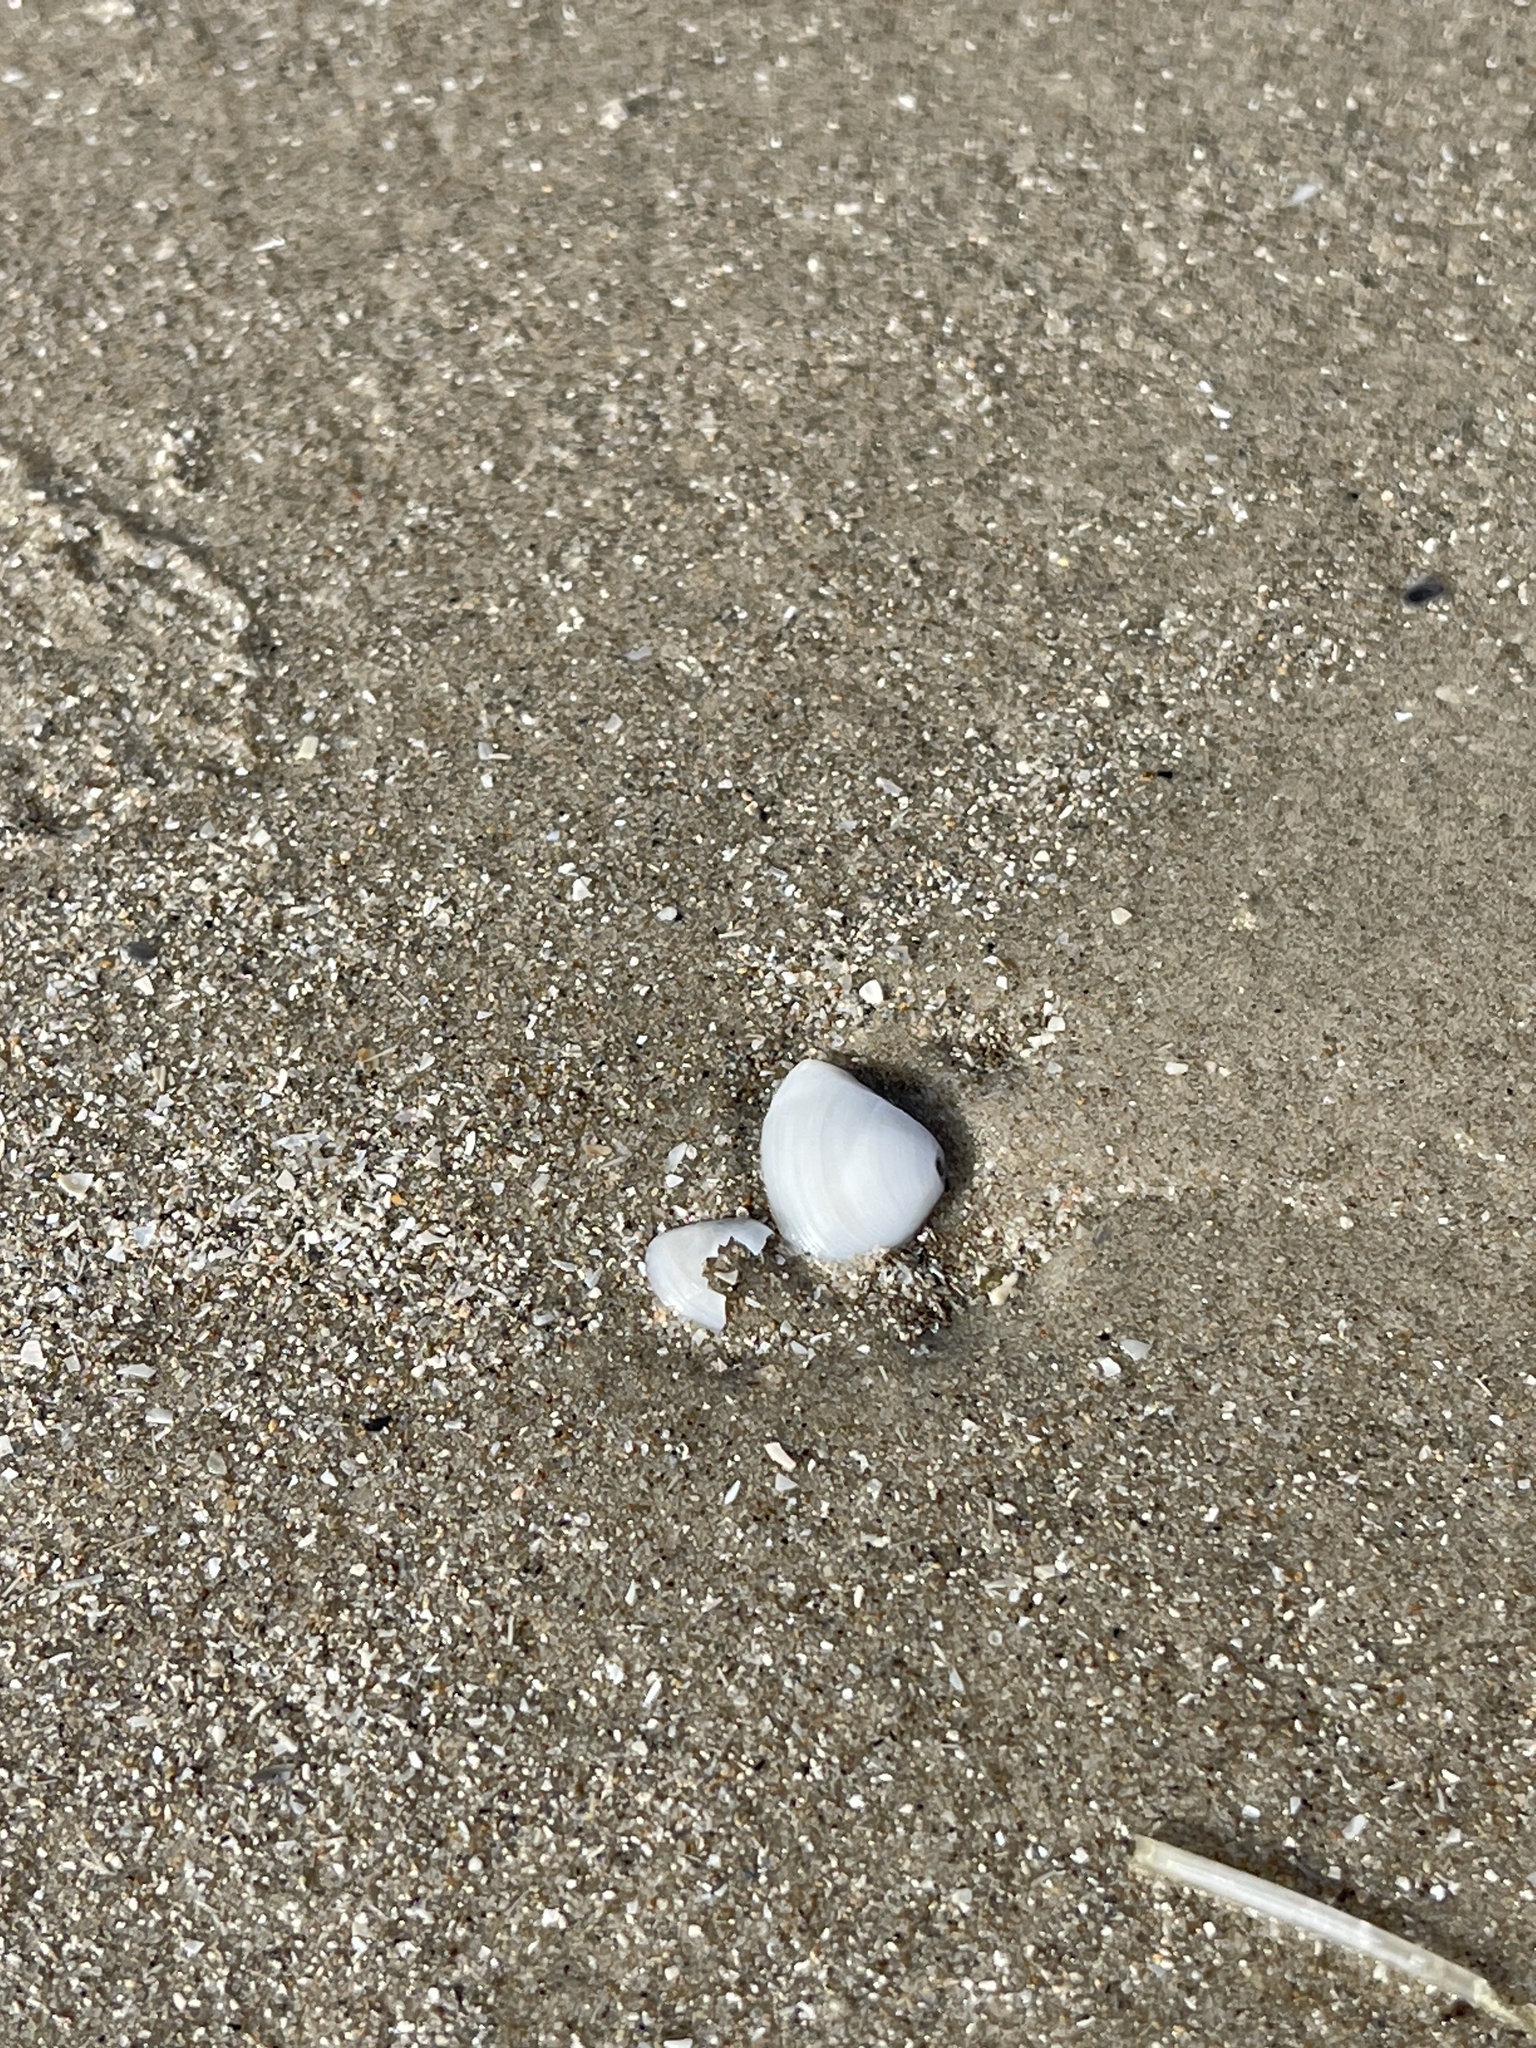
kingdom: Animalia
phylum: Mollusca
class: Bivalvia
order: Venerida
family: Mactridae
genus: Mulinia
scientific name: Mulinia lateralis
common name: Dwarf surfclam
